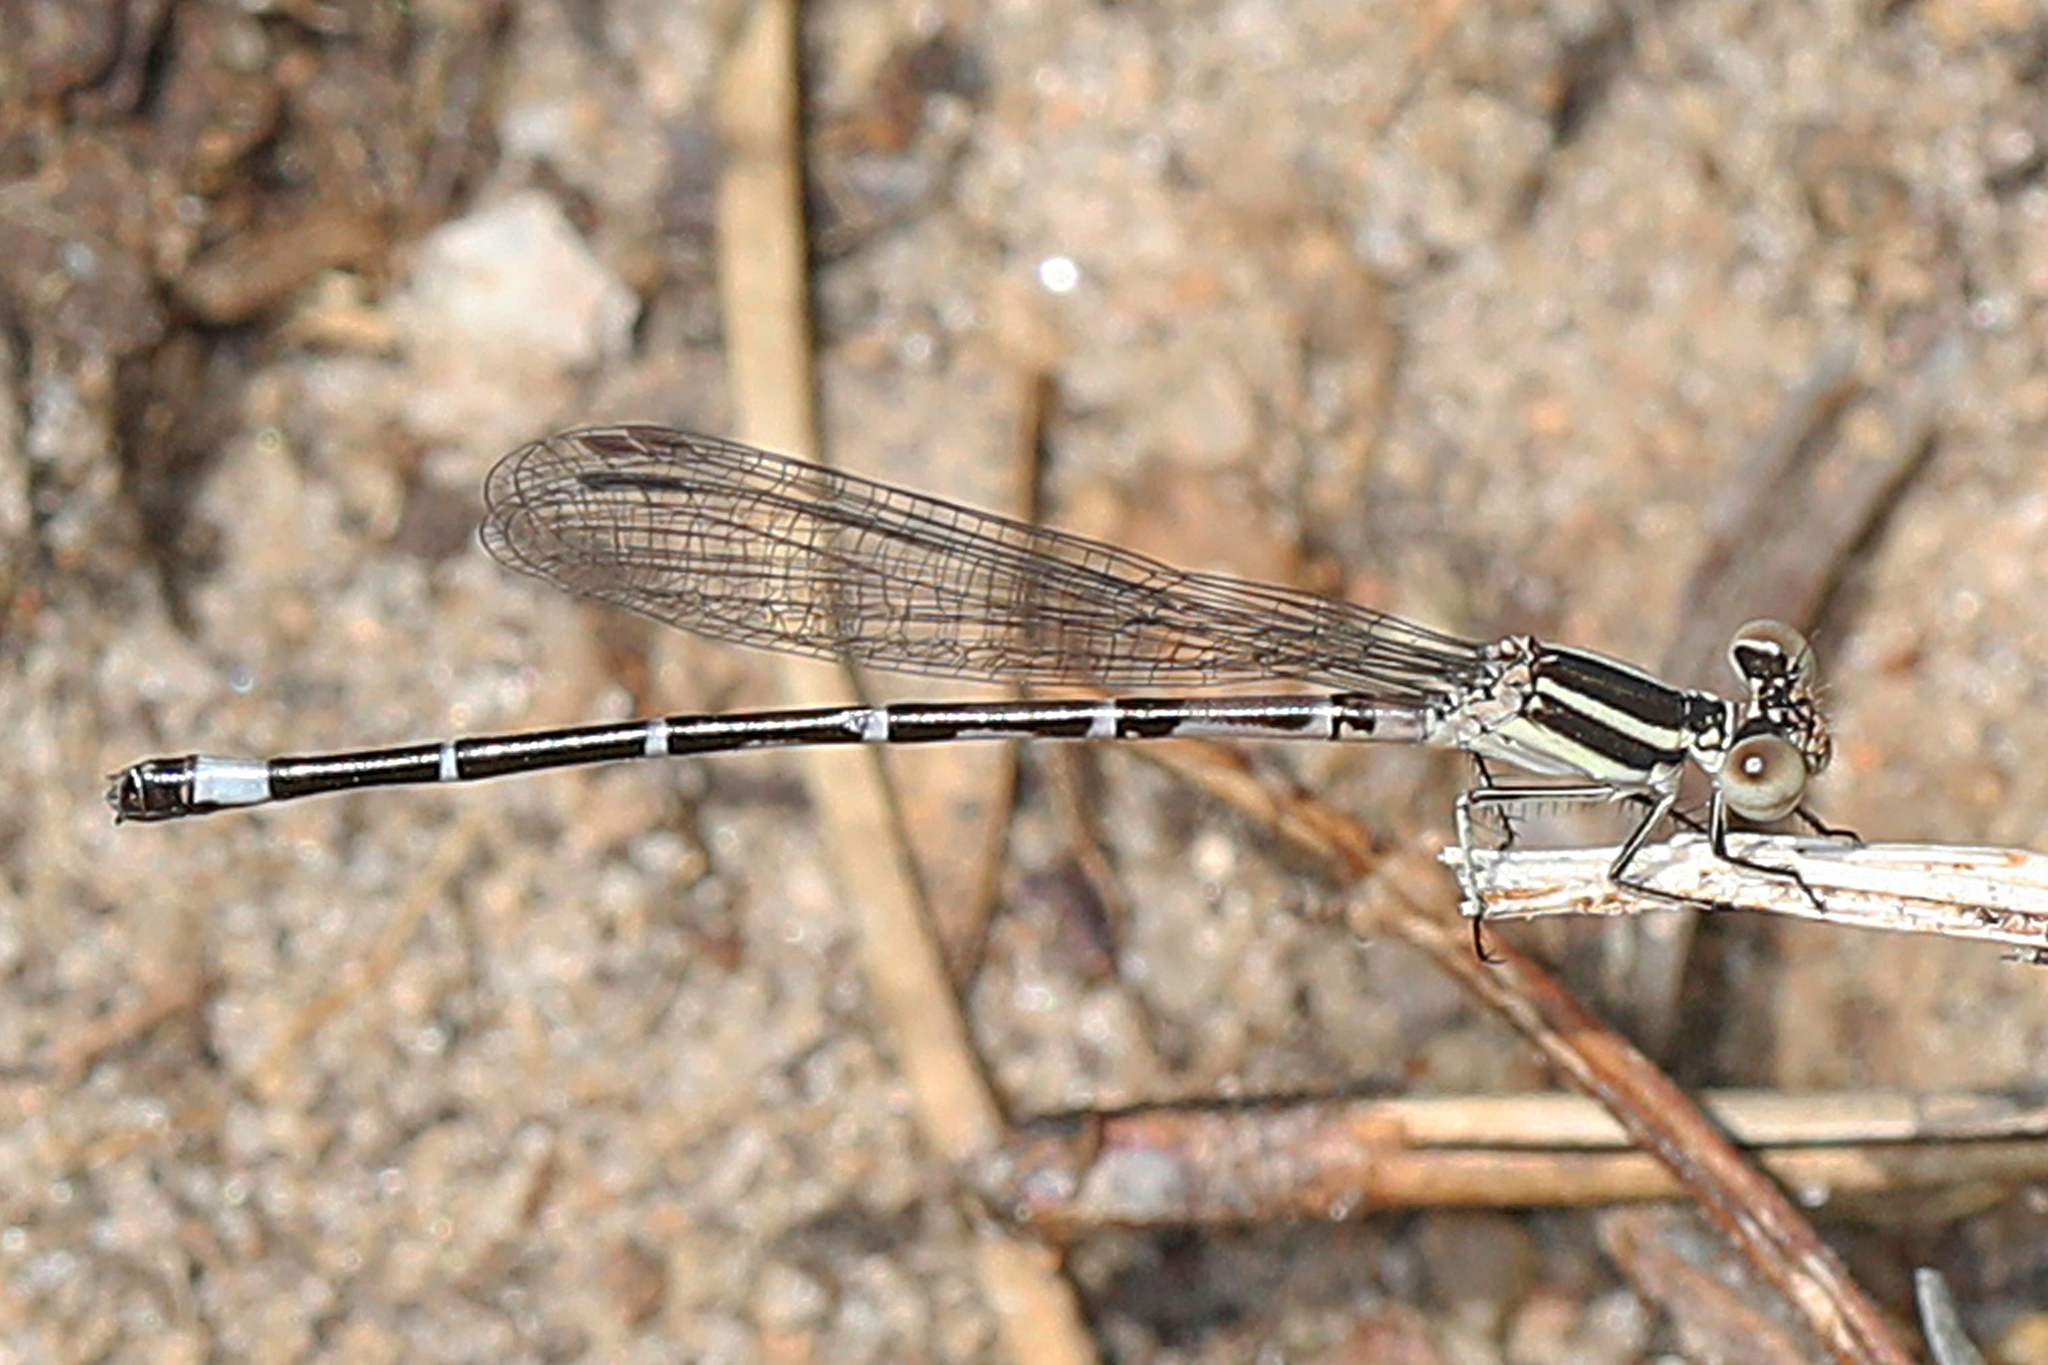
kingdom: Animalia
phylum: Arthropoda
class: Insecta
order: Odonata
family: Coenagrionidae
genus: Argia
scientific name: Argia bipunctulata
